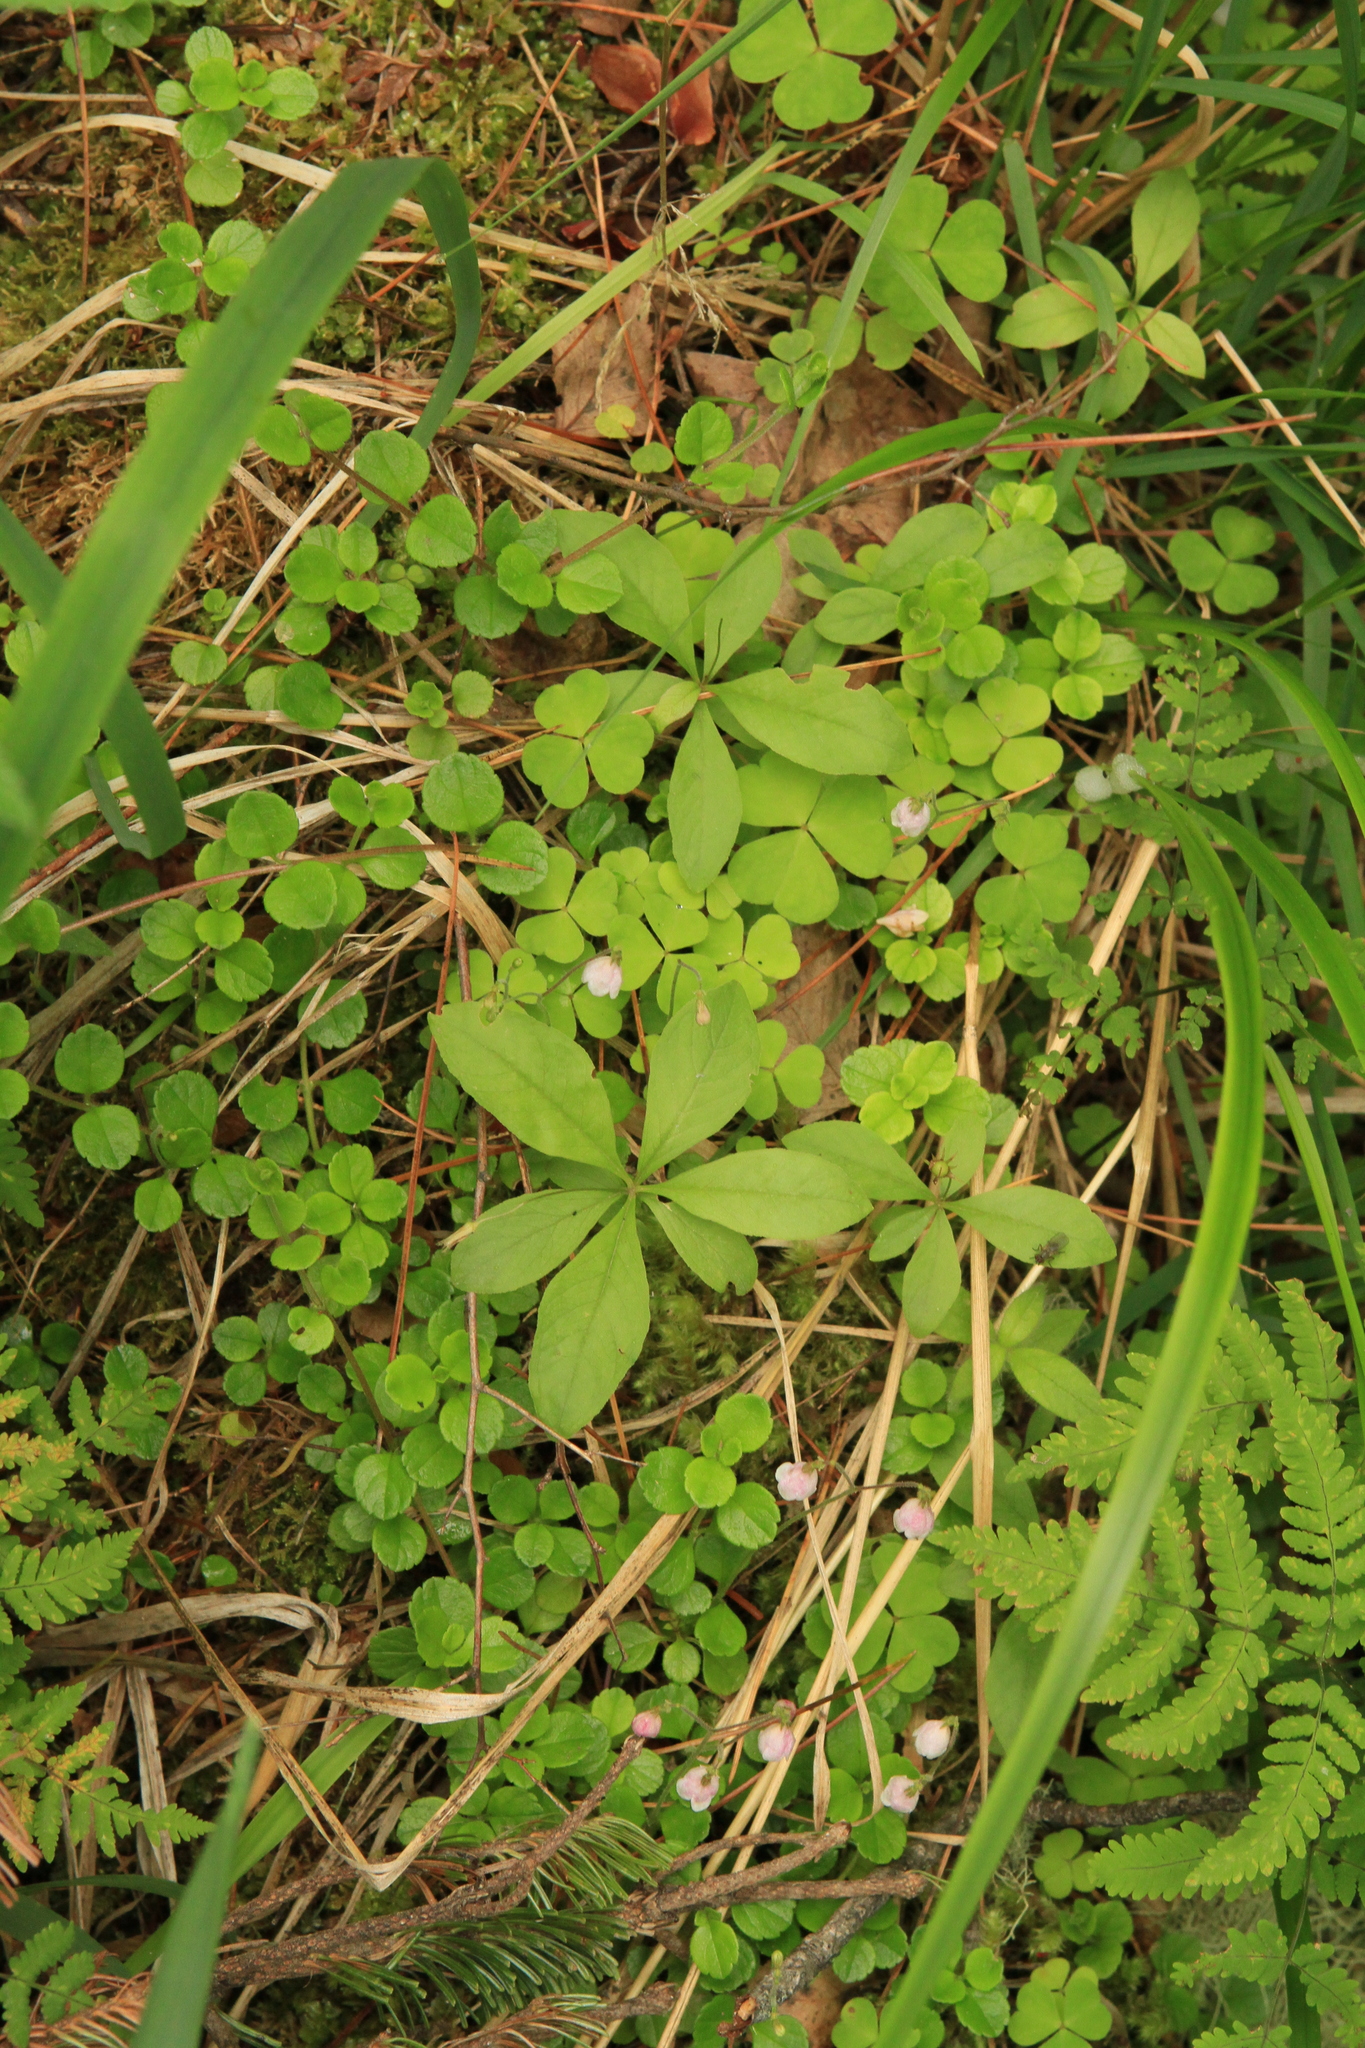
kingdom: Plantae
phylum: Tracheophyta
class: Magnoliopsida
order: Ericales
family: Primulaceae
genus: Lysimachia
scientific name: Lysimachia europaea
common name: Arctic starflower
